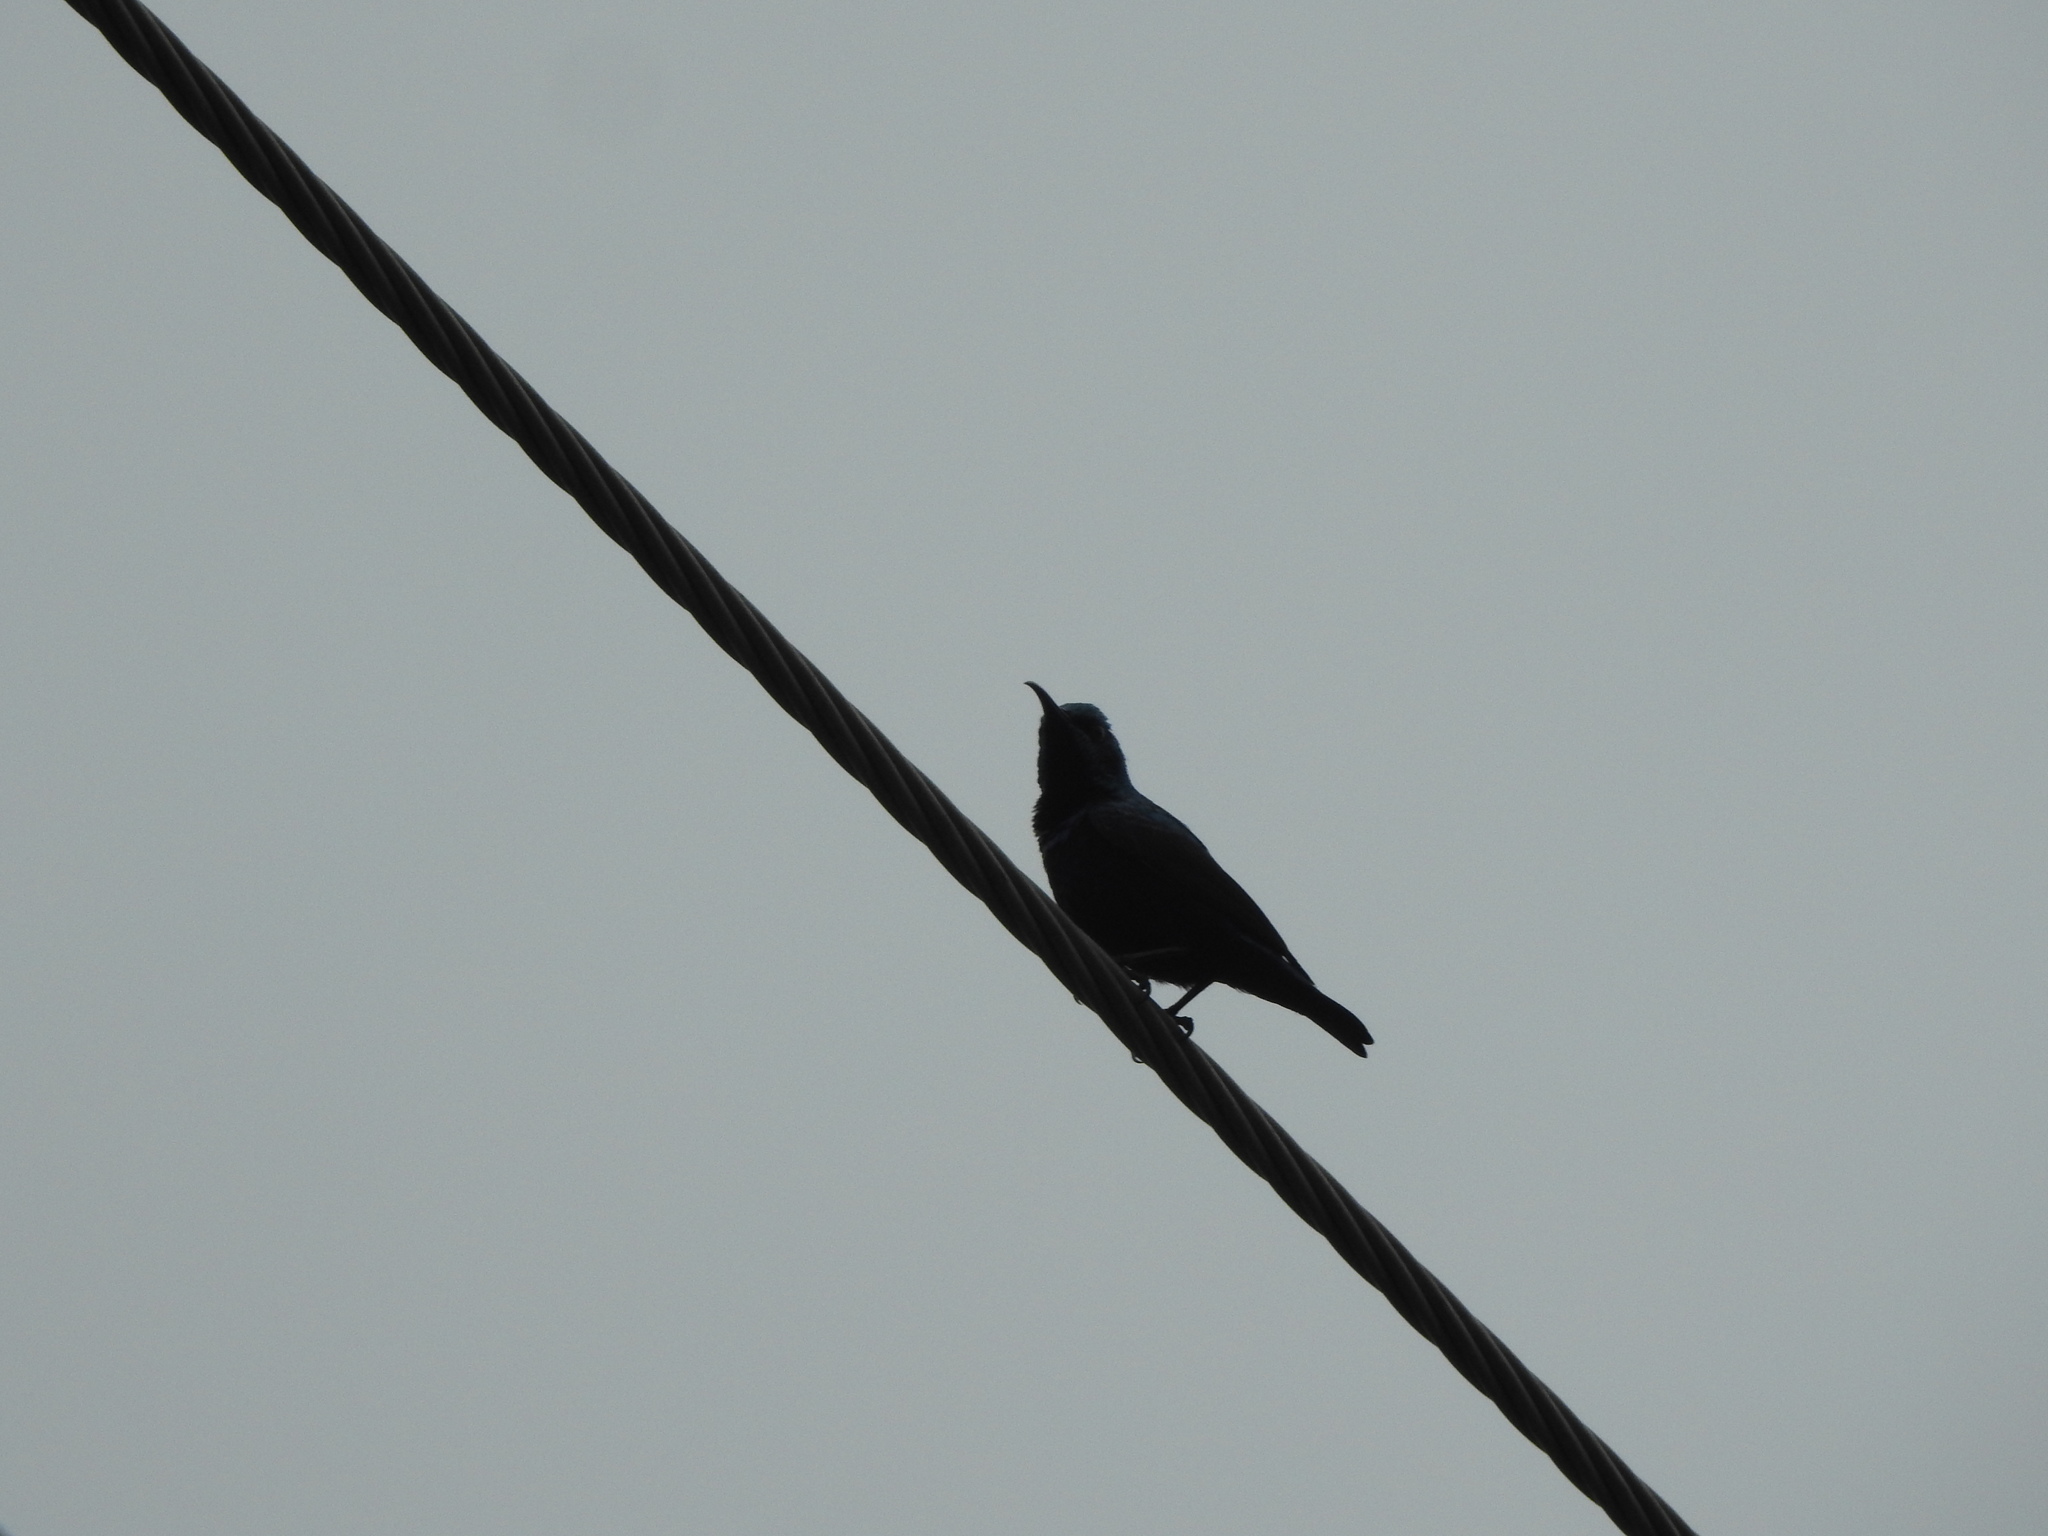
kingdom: Animalia
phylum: Chordata
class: Aves
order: Passeriformes
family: Nectariniidae
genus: Cinnyris
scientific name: Cinnyris asiaticus
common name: Purple sunbird
